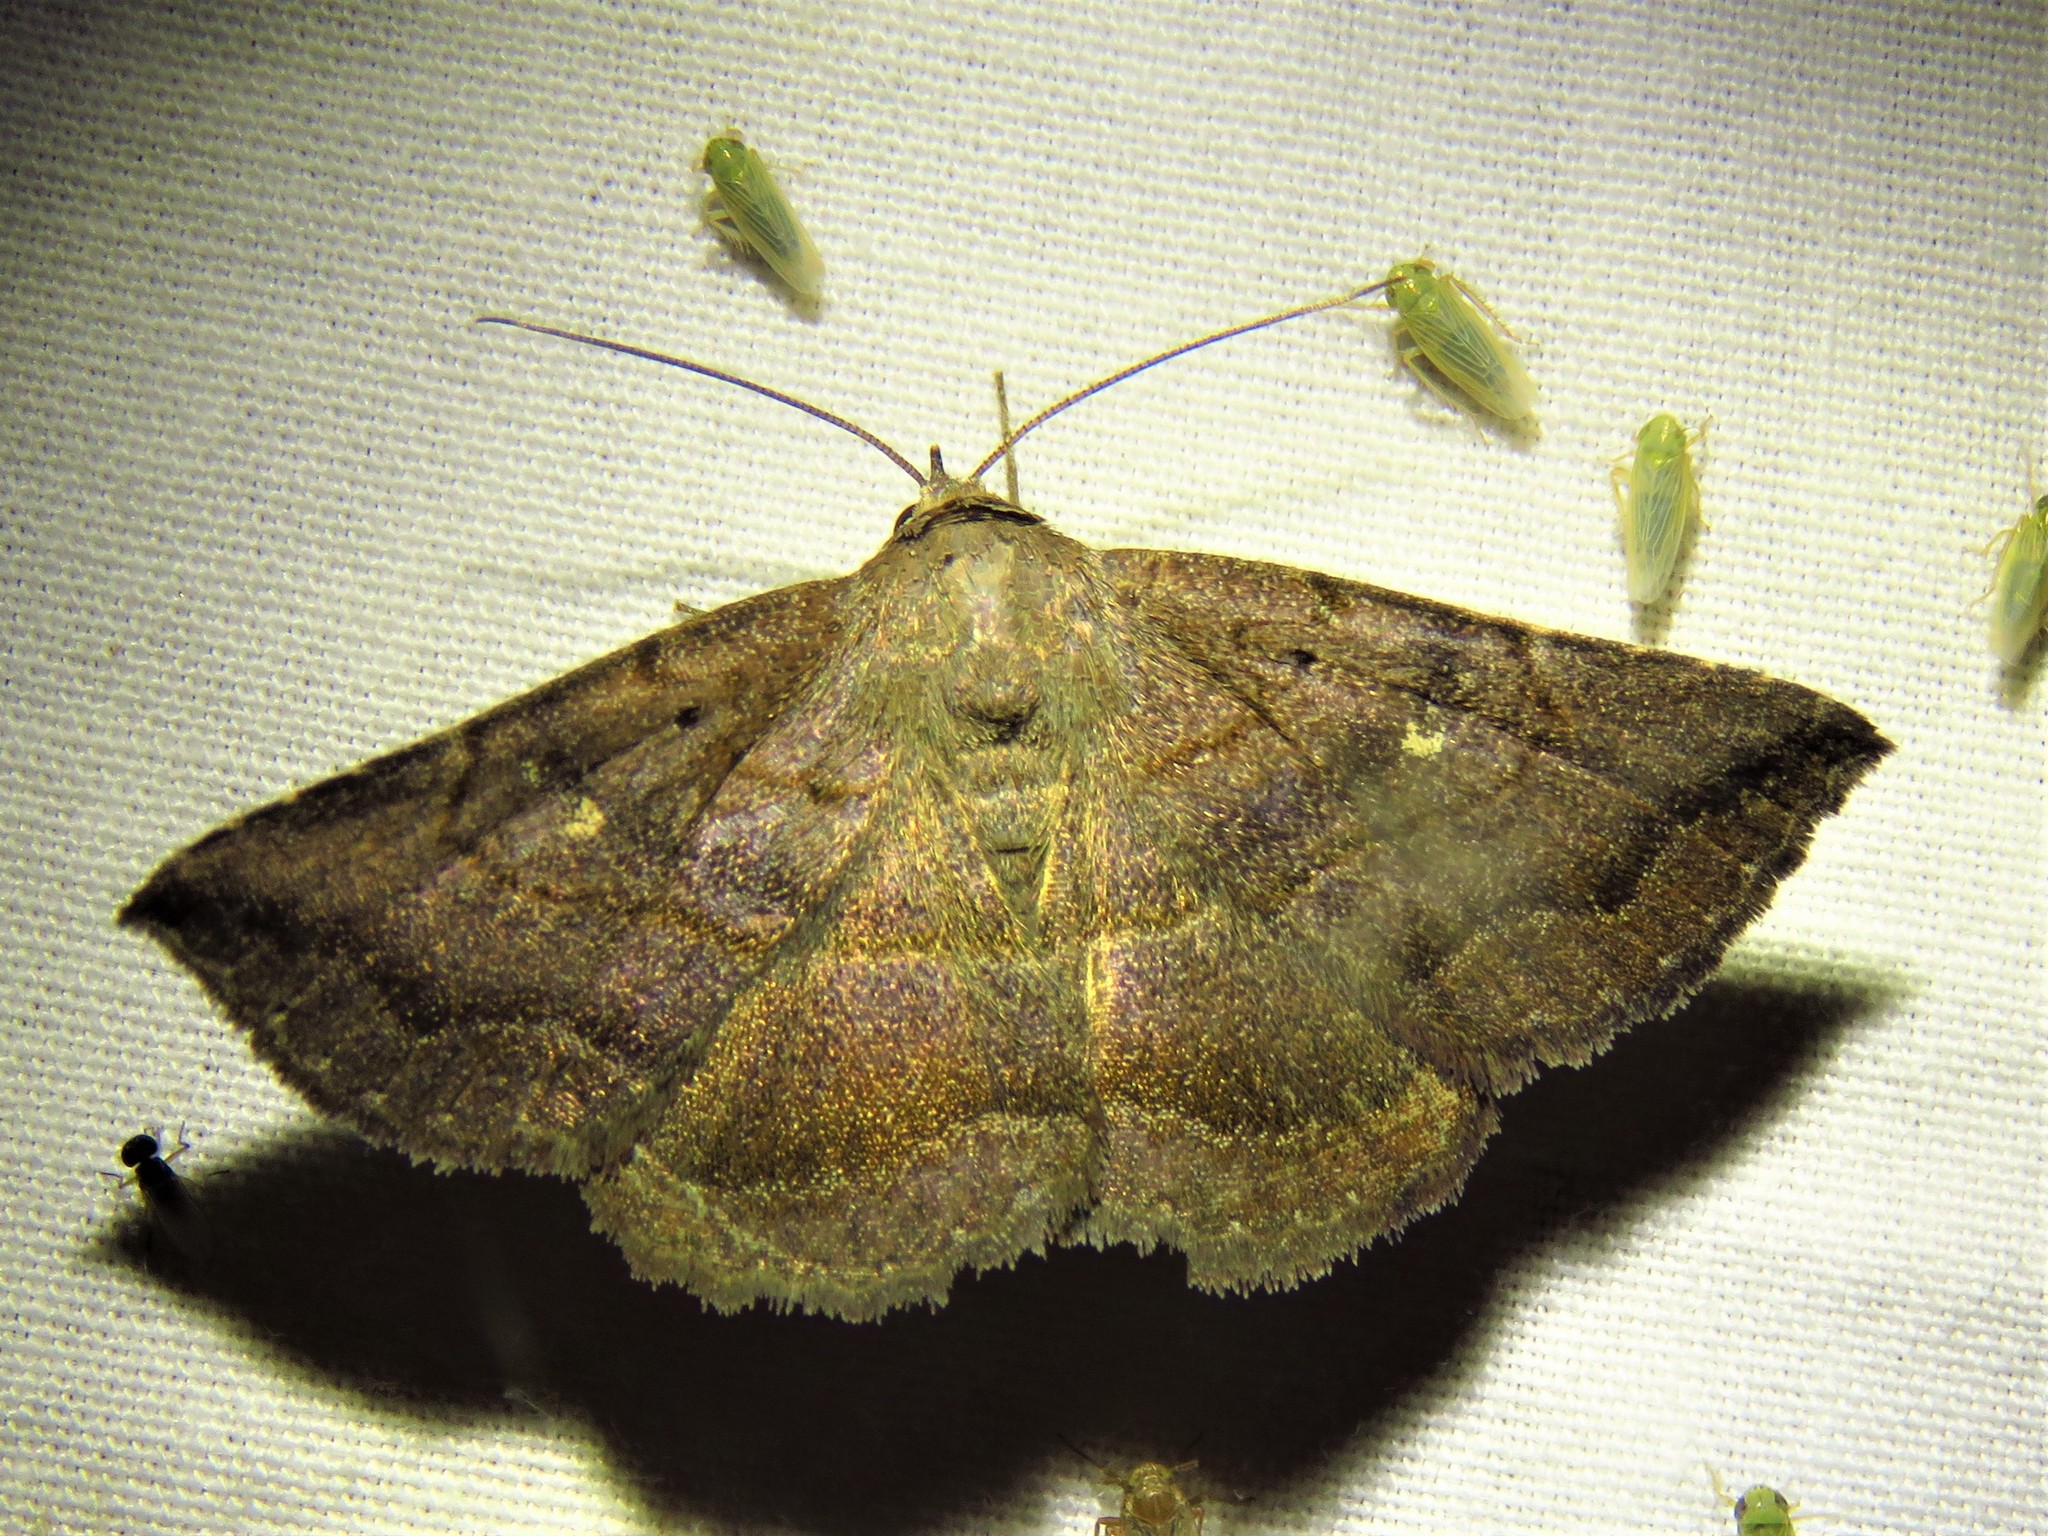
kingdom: Animalia
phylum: Arthropoda
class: Insecta
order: Lepidoptera
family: Erebidae
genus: Lesmone
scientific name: Lesmone detrahens
